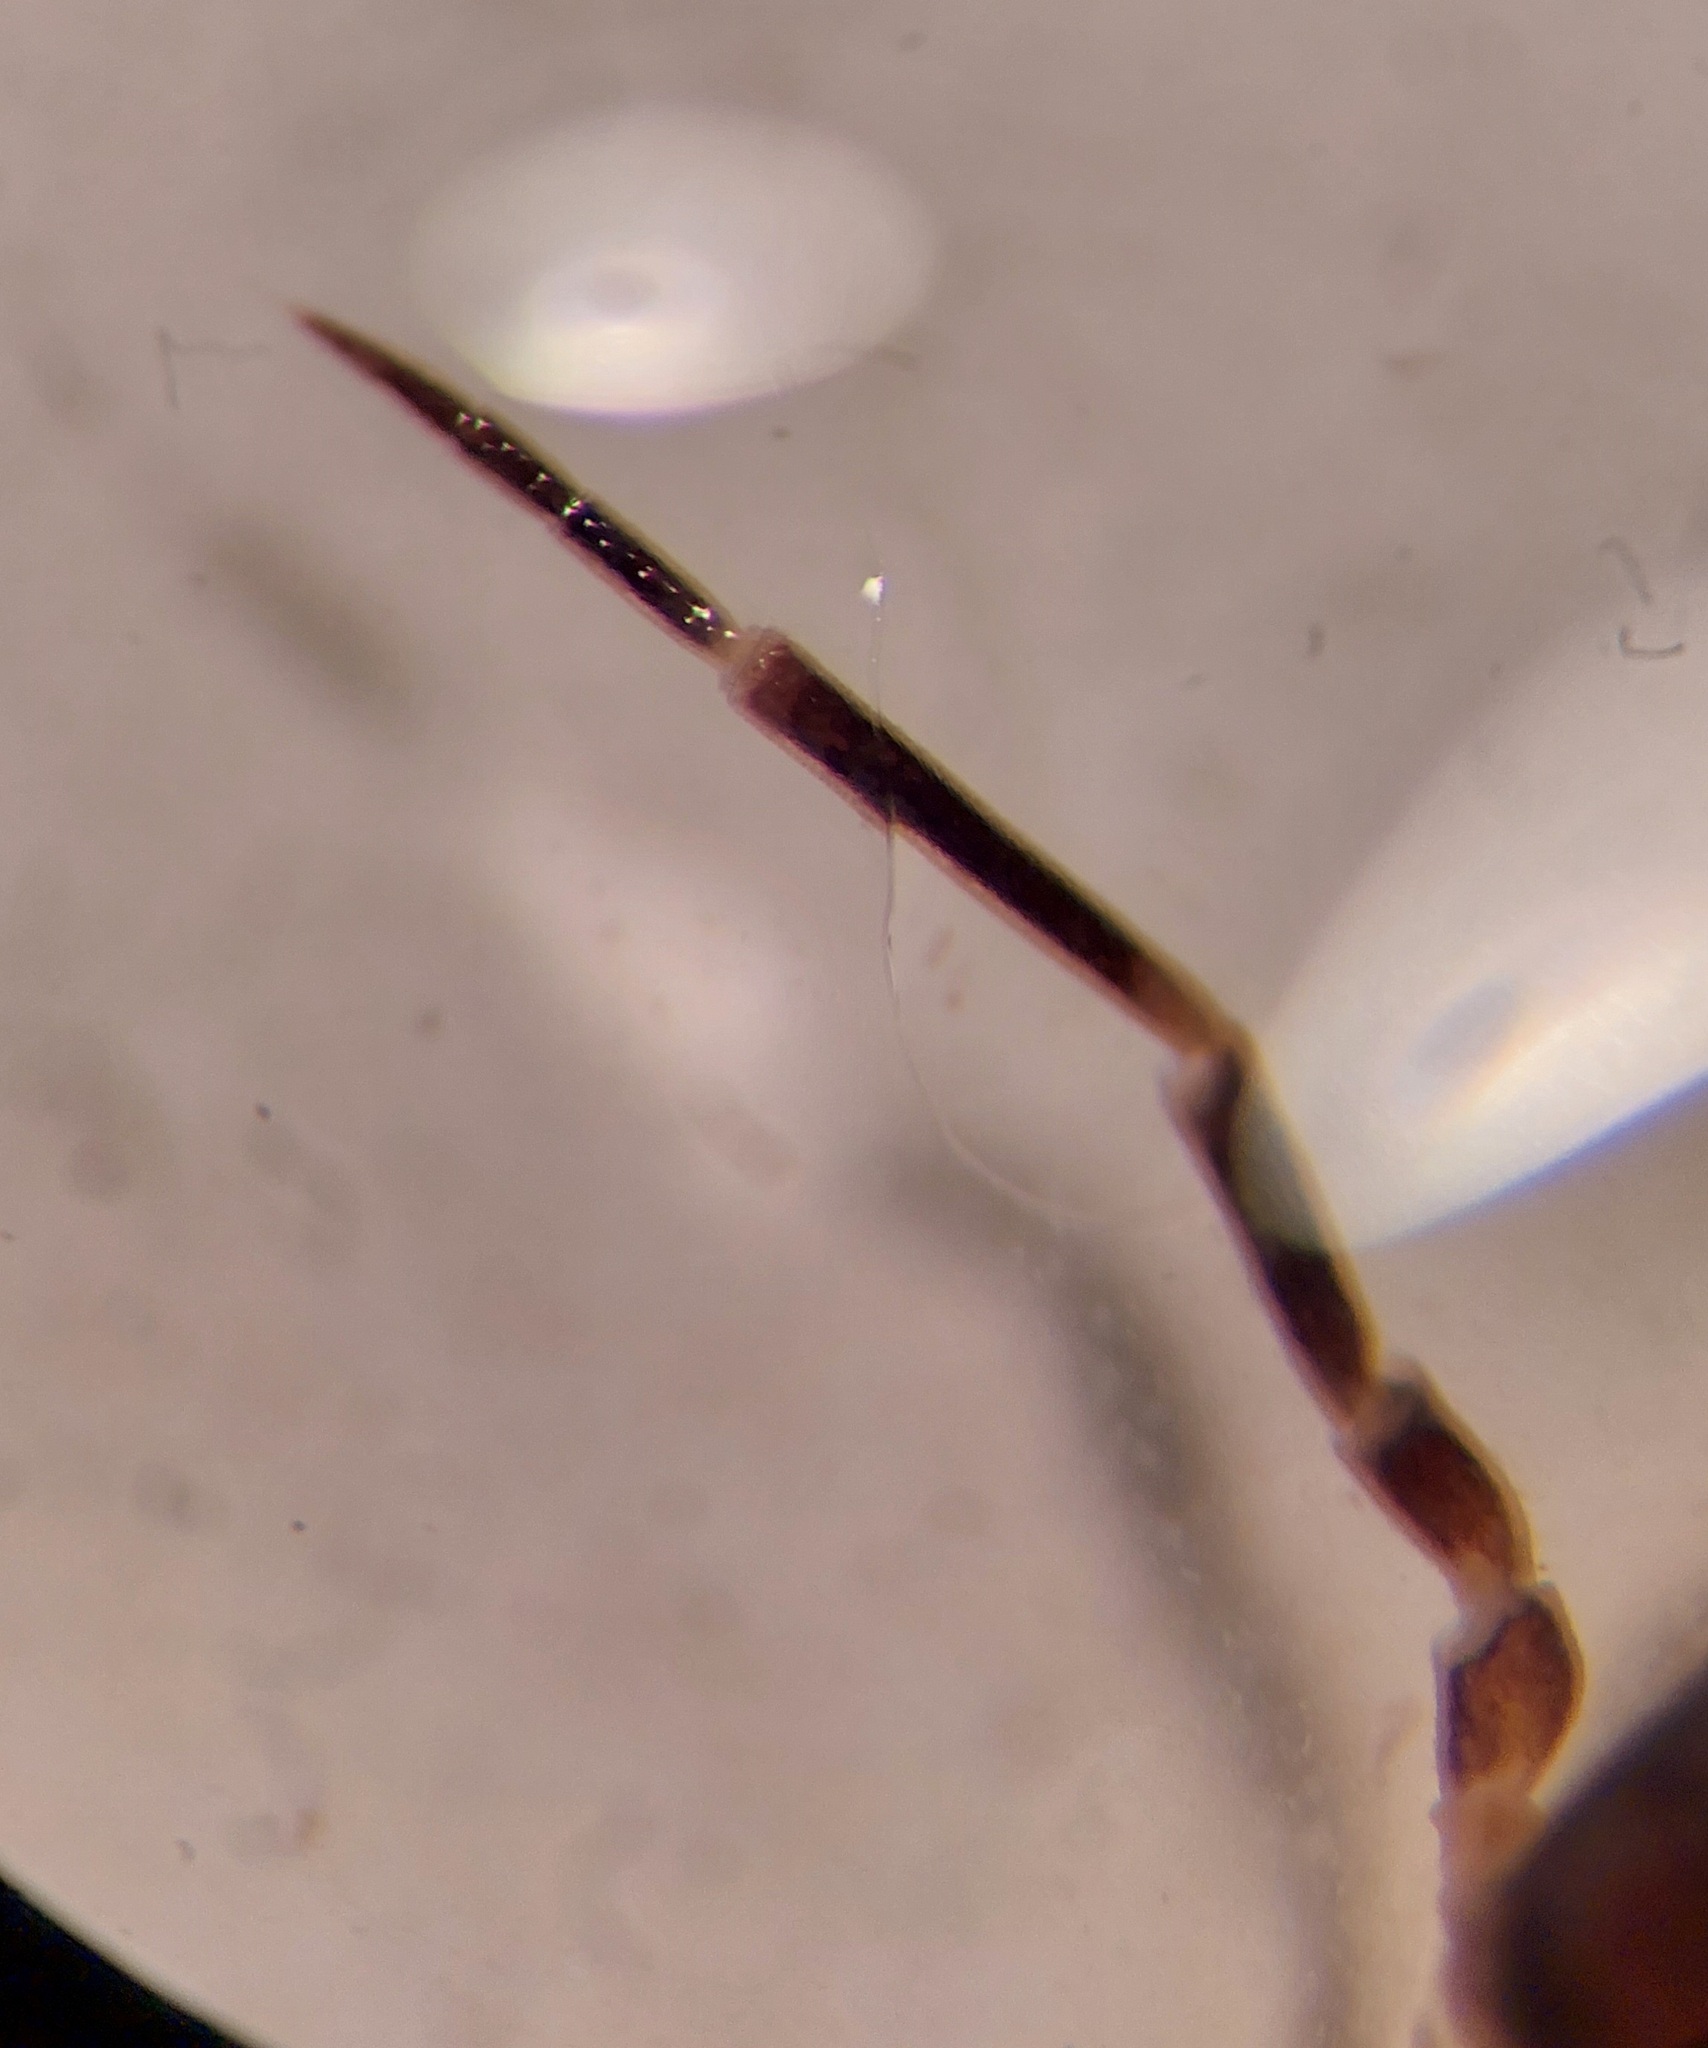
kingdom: Animalia
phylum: Arthropoda
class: Malacostraca
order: Isopoda
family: Philosciidae
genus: Lepidoniscus
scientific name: Lepidoniscus minutus
